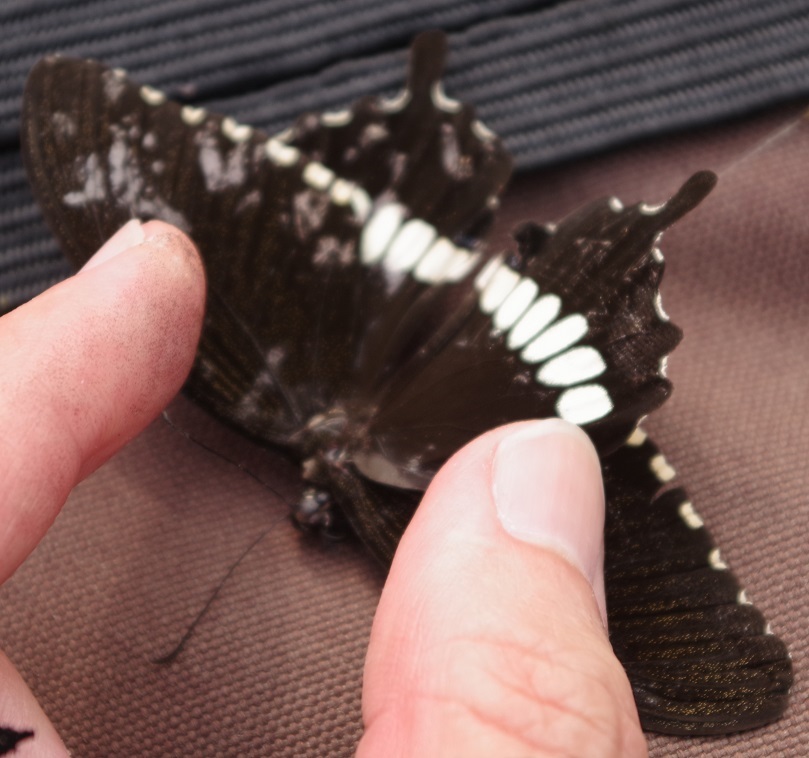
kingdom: Animalia
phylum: Arthropoda
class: Insecta
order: Lepidoptera
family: Papilionidae
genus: Papilio
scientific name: Papilio polytes
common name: Common mormon
